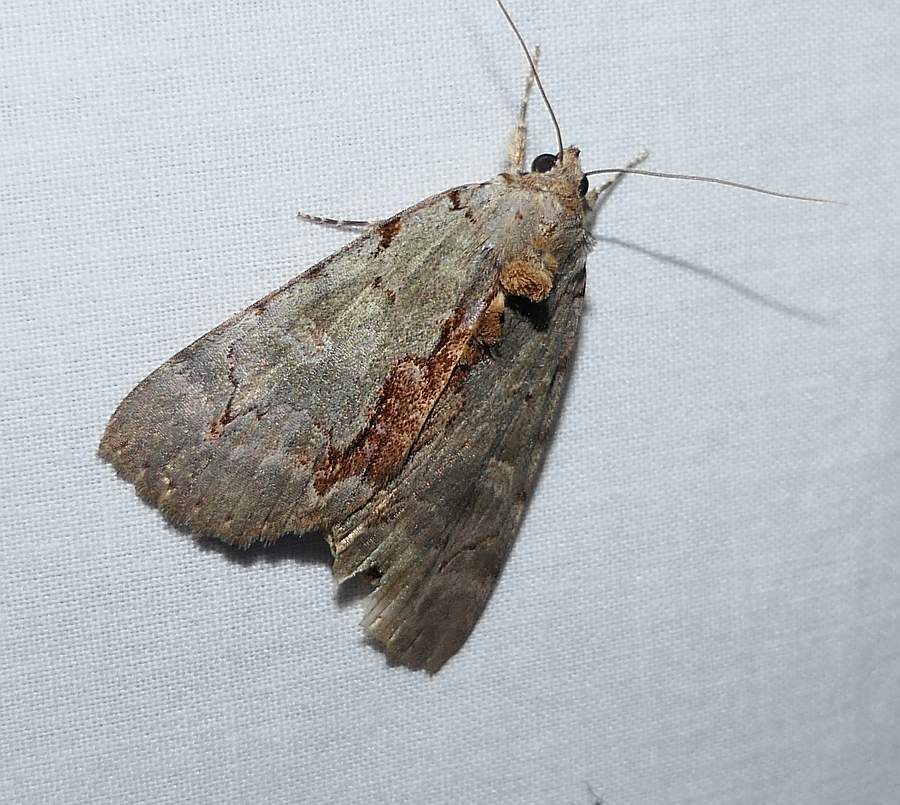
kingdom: Animalia
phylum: Arthropoda
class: Insecta
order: Lepidoptera
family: Erebidae
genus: Catocala
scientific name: Catocala grynea
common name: Woody underwing
